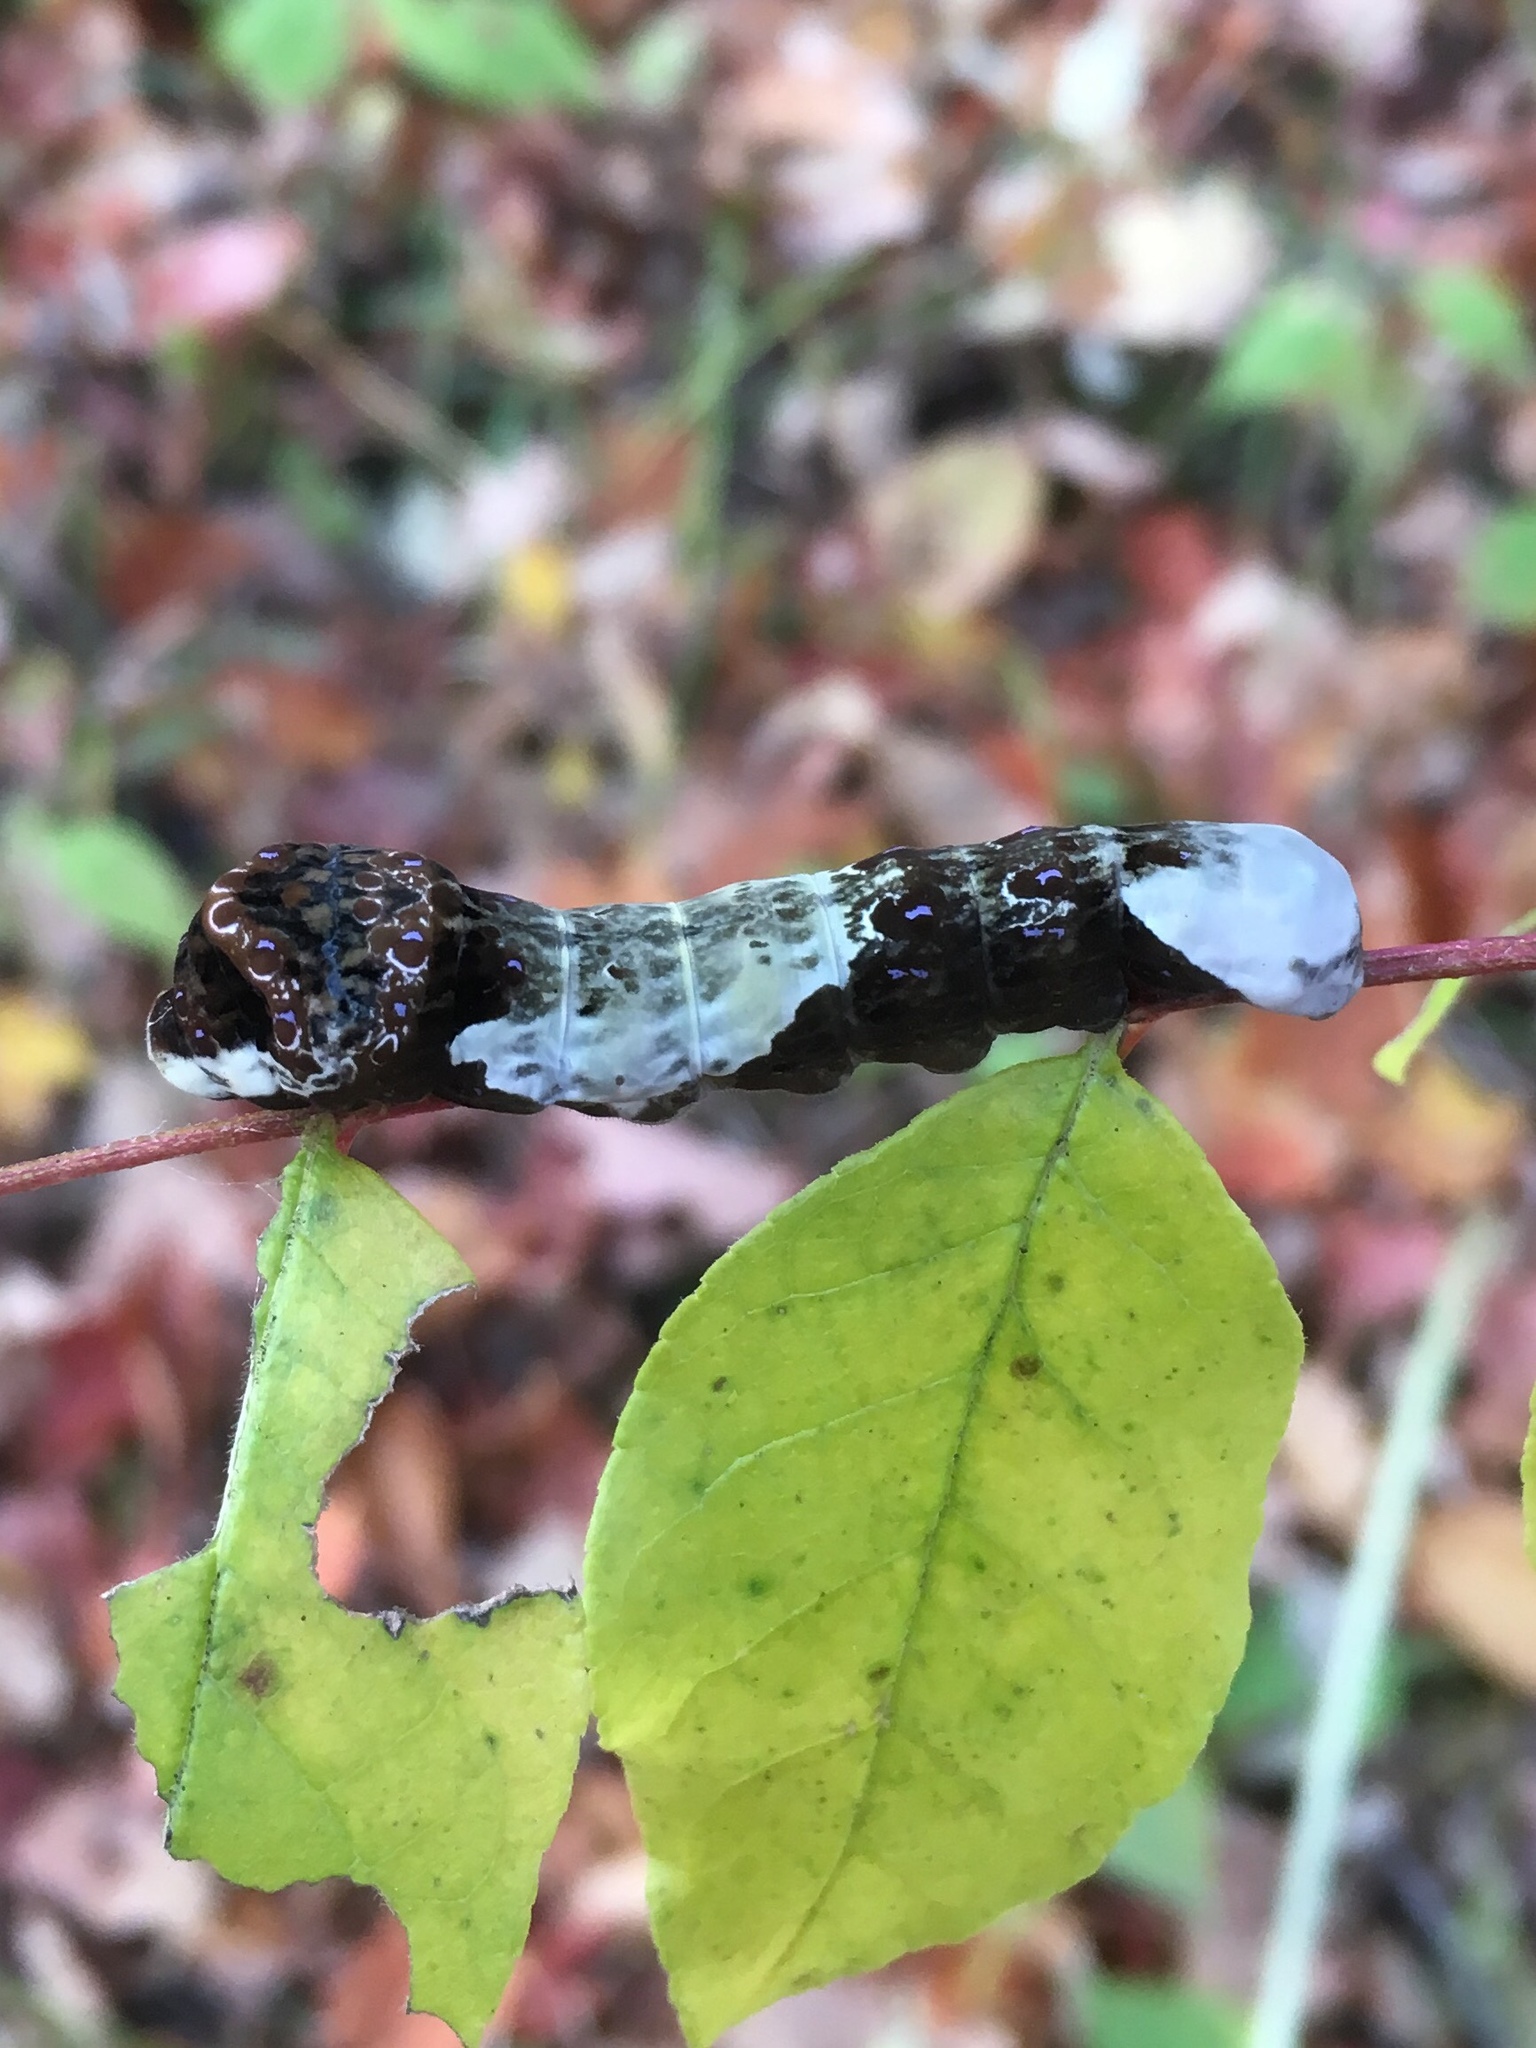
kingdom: Animalia
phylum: Arthropoda
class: Insecta
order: Lepidoptera
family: Papilionidae
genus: Papilio
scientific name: Papilio cresphontes
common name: Giant swallowtail
